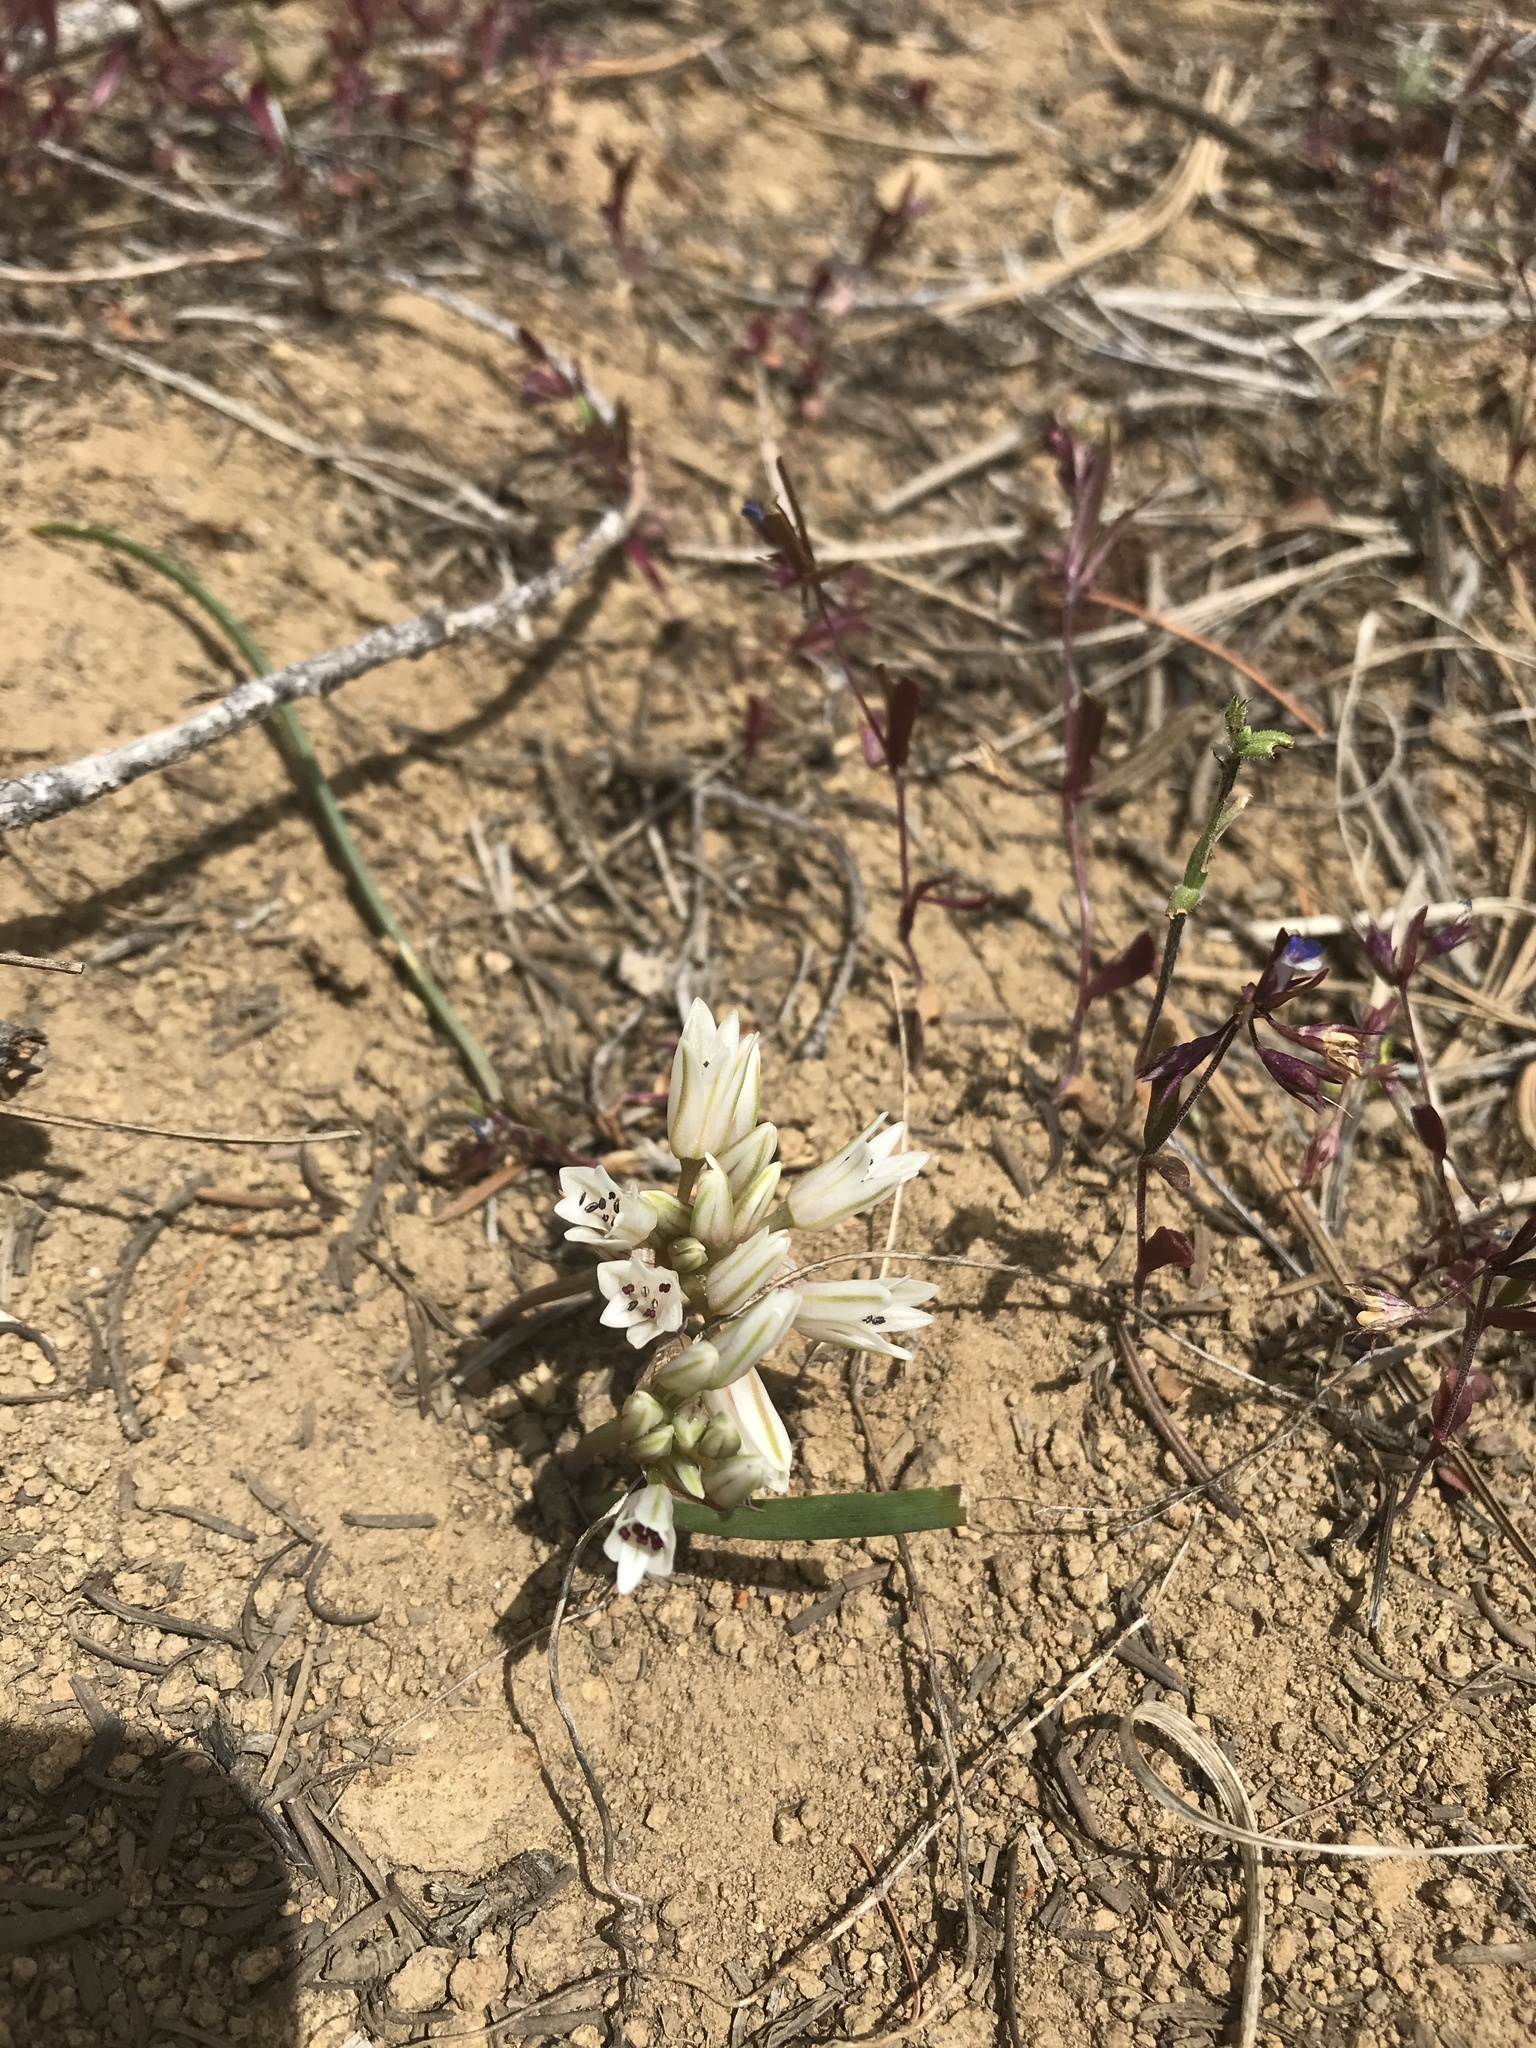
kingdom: Plantae
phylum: Tracheophyta
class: Liliopsida
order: Asparagales
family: Amaryllidaceae
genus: Allium
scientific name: Allium crenulatum
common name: Olympic onion
